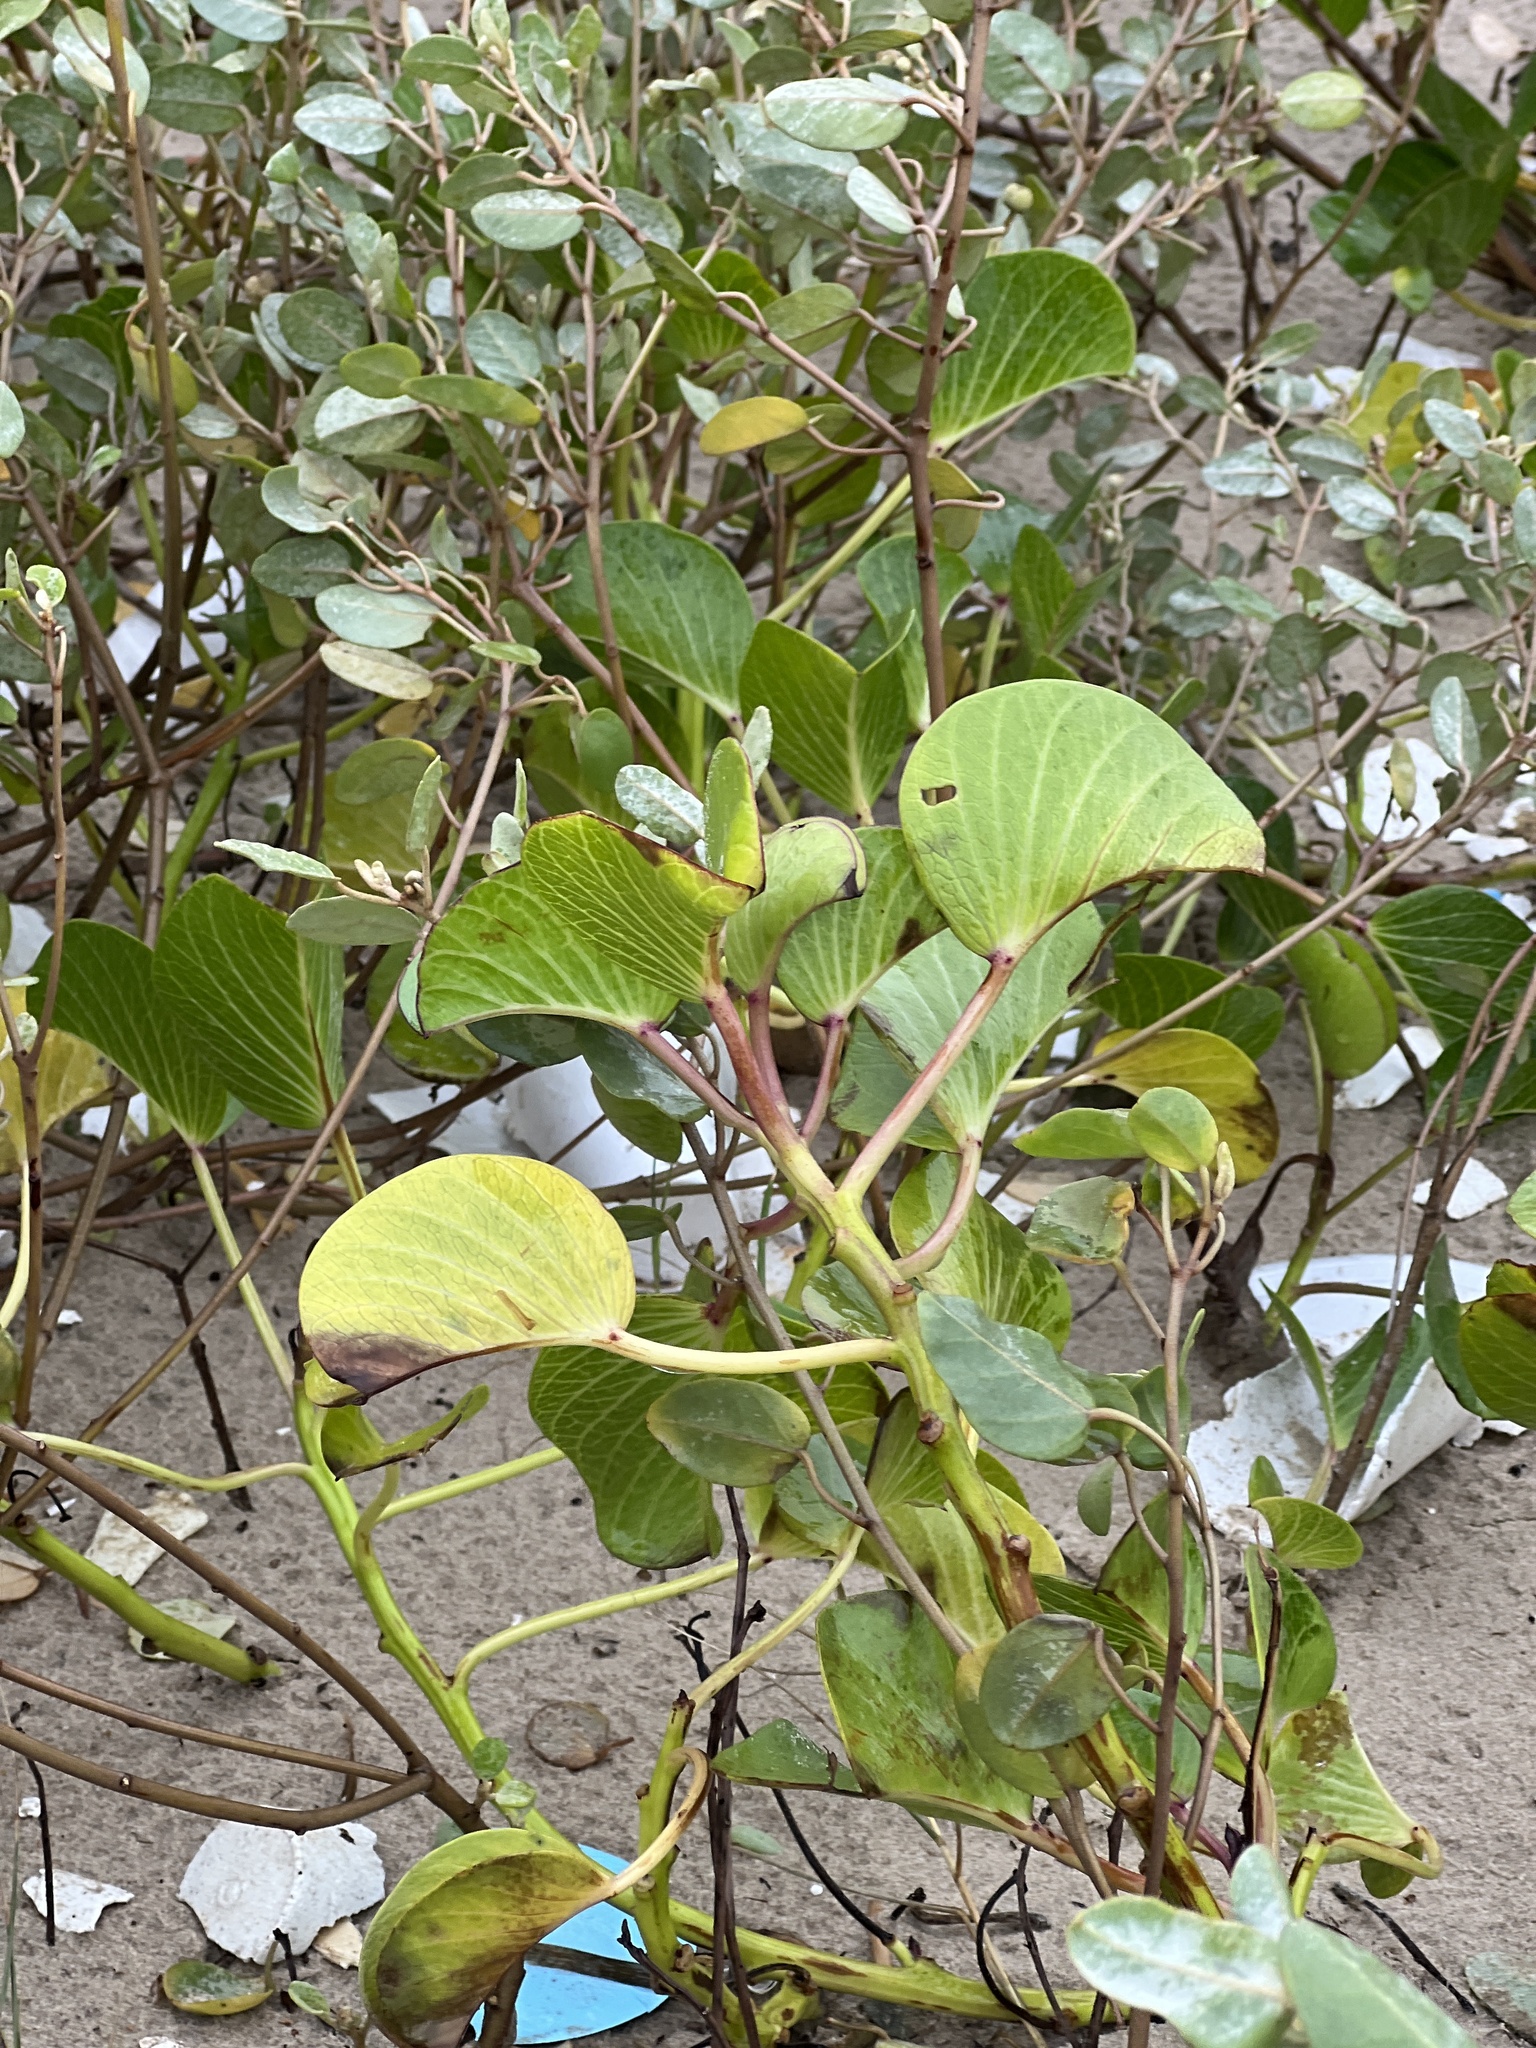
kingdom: Plantae
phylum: Tracheophyta
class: Magnoliopsida
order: Solanales
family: Convolvulaceae
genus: Ipomoea
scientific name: Ipomoea pes-caprae
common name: Beach morning glory
